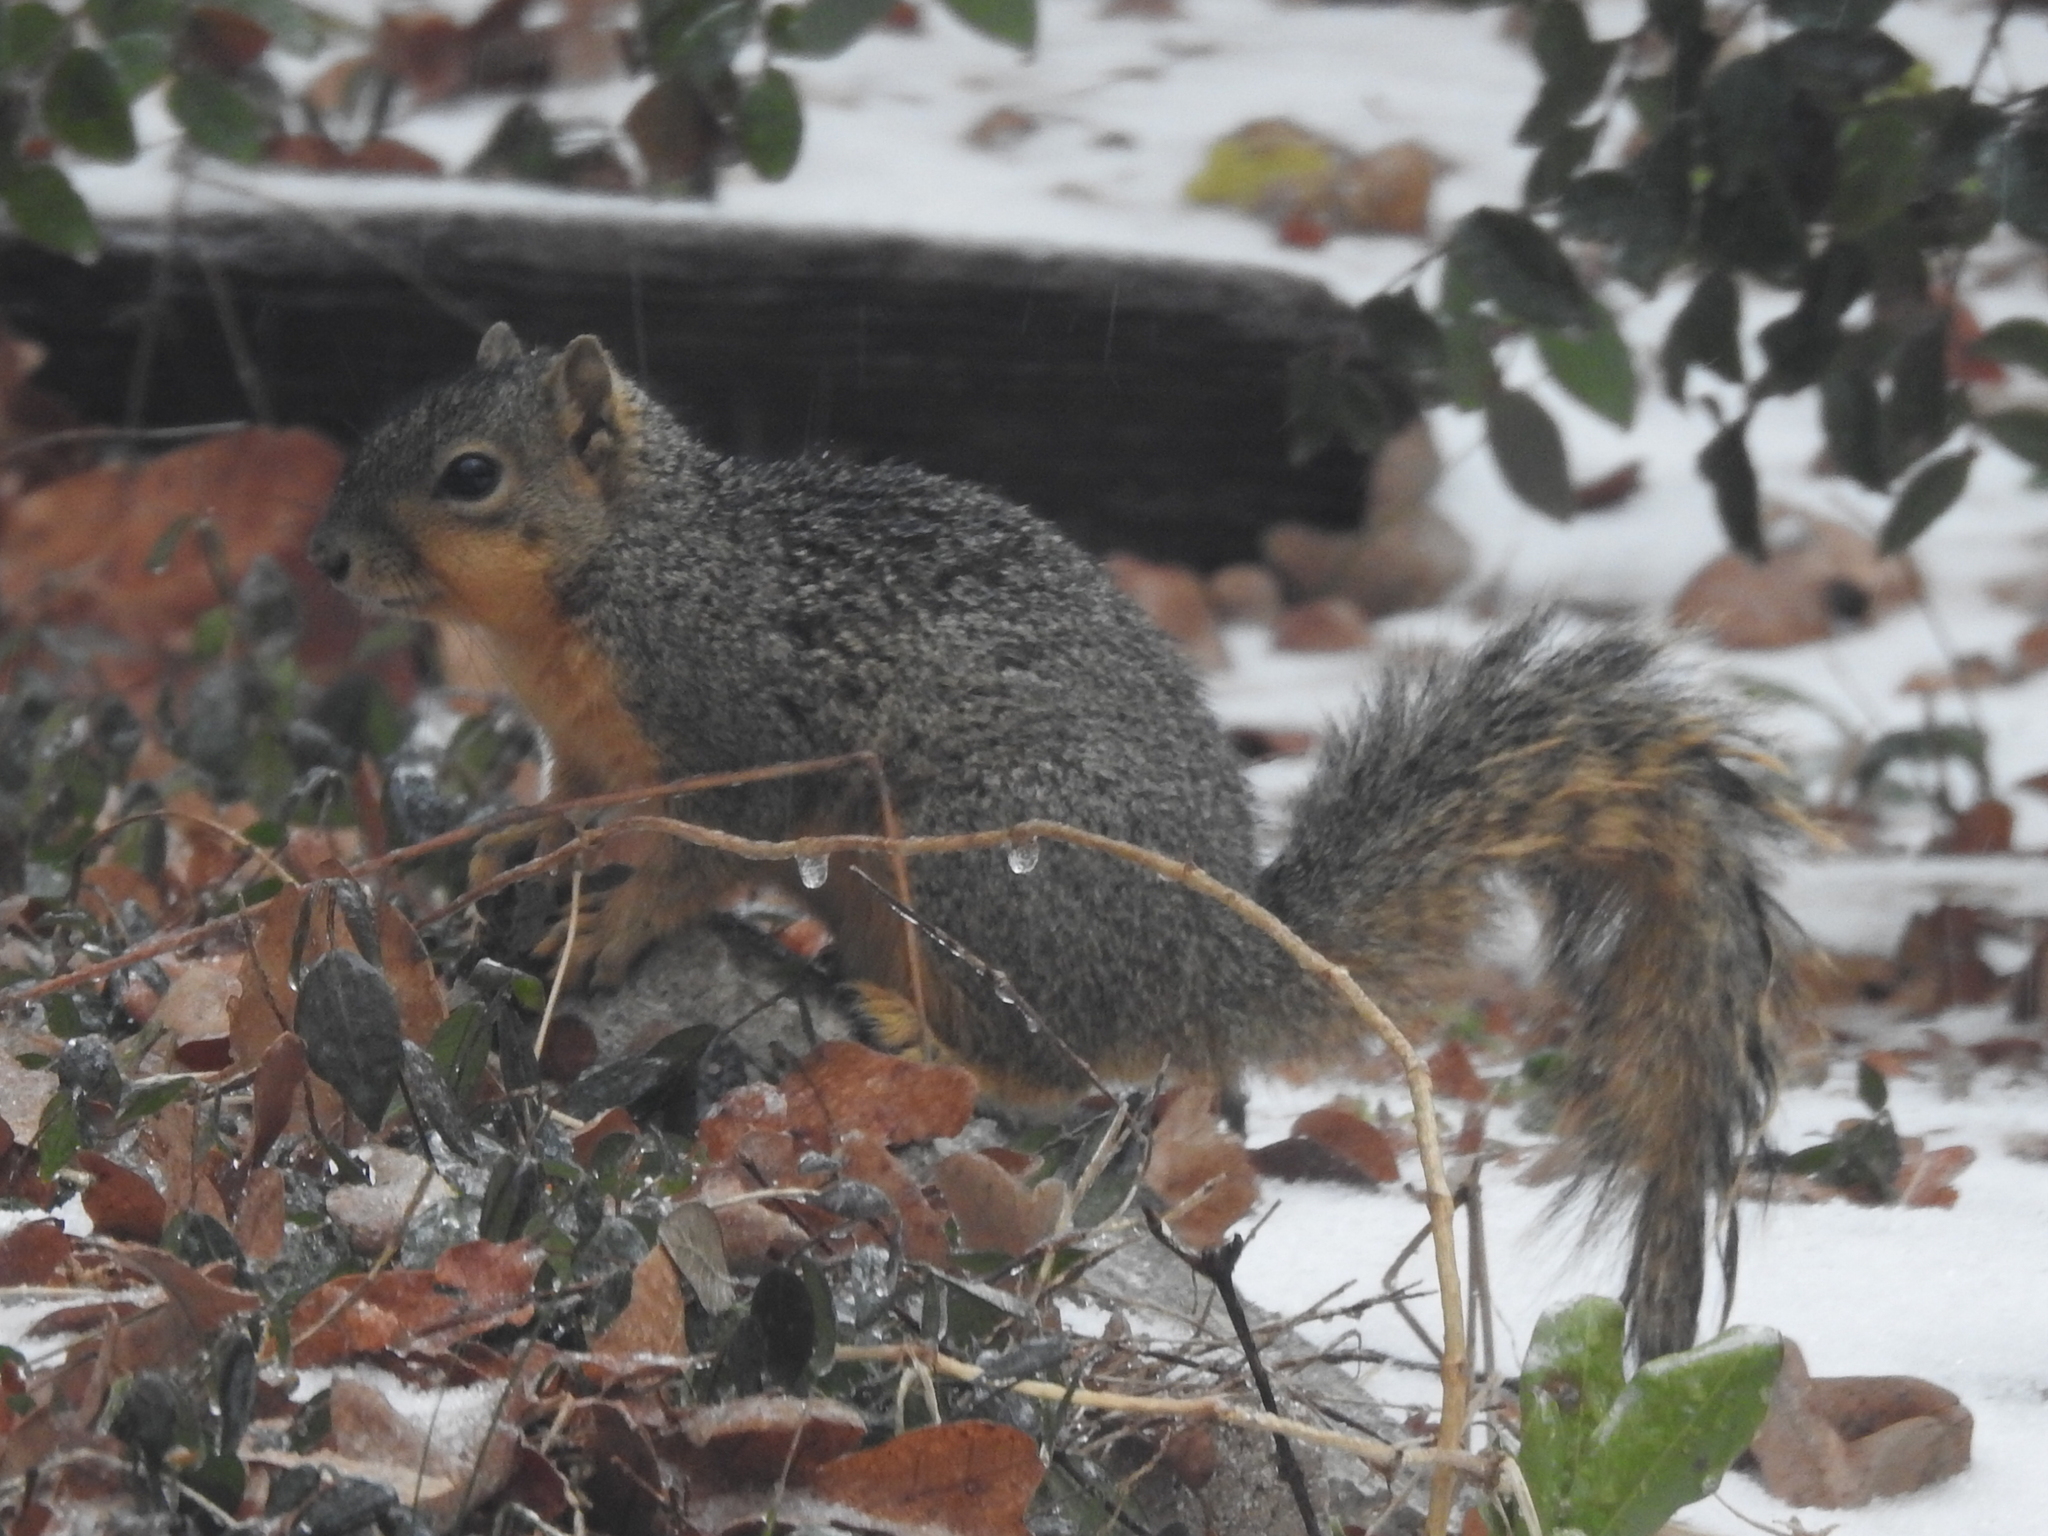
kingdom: Animalia
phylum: Chordata
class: Mammalia
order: Rodentia
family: Sciuridae
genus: Sciurus
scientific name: Sciurus niger
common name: Fox squirrel
